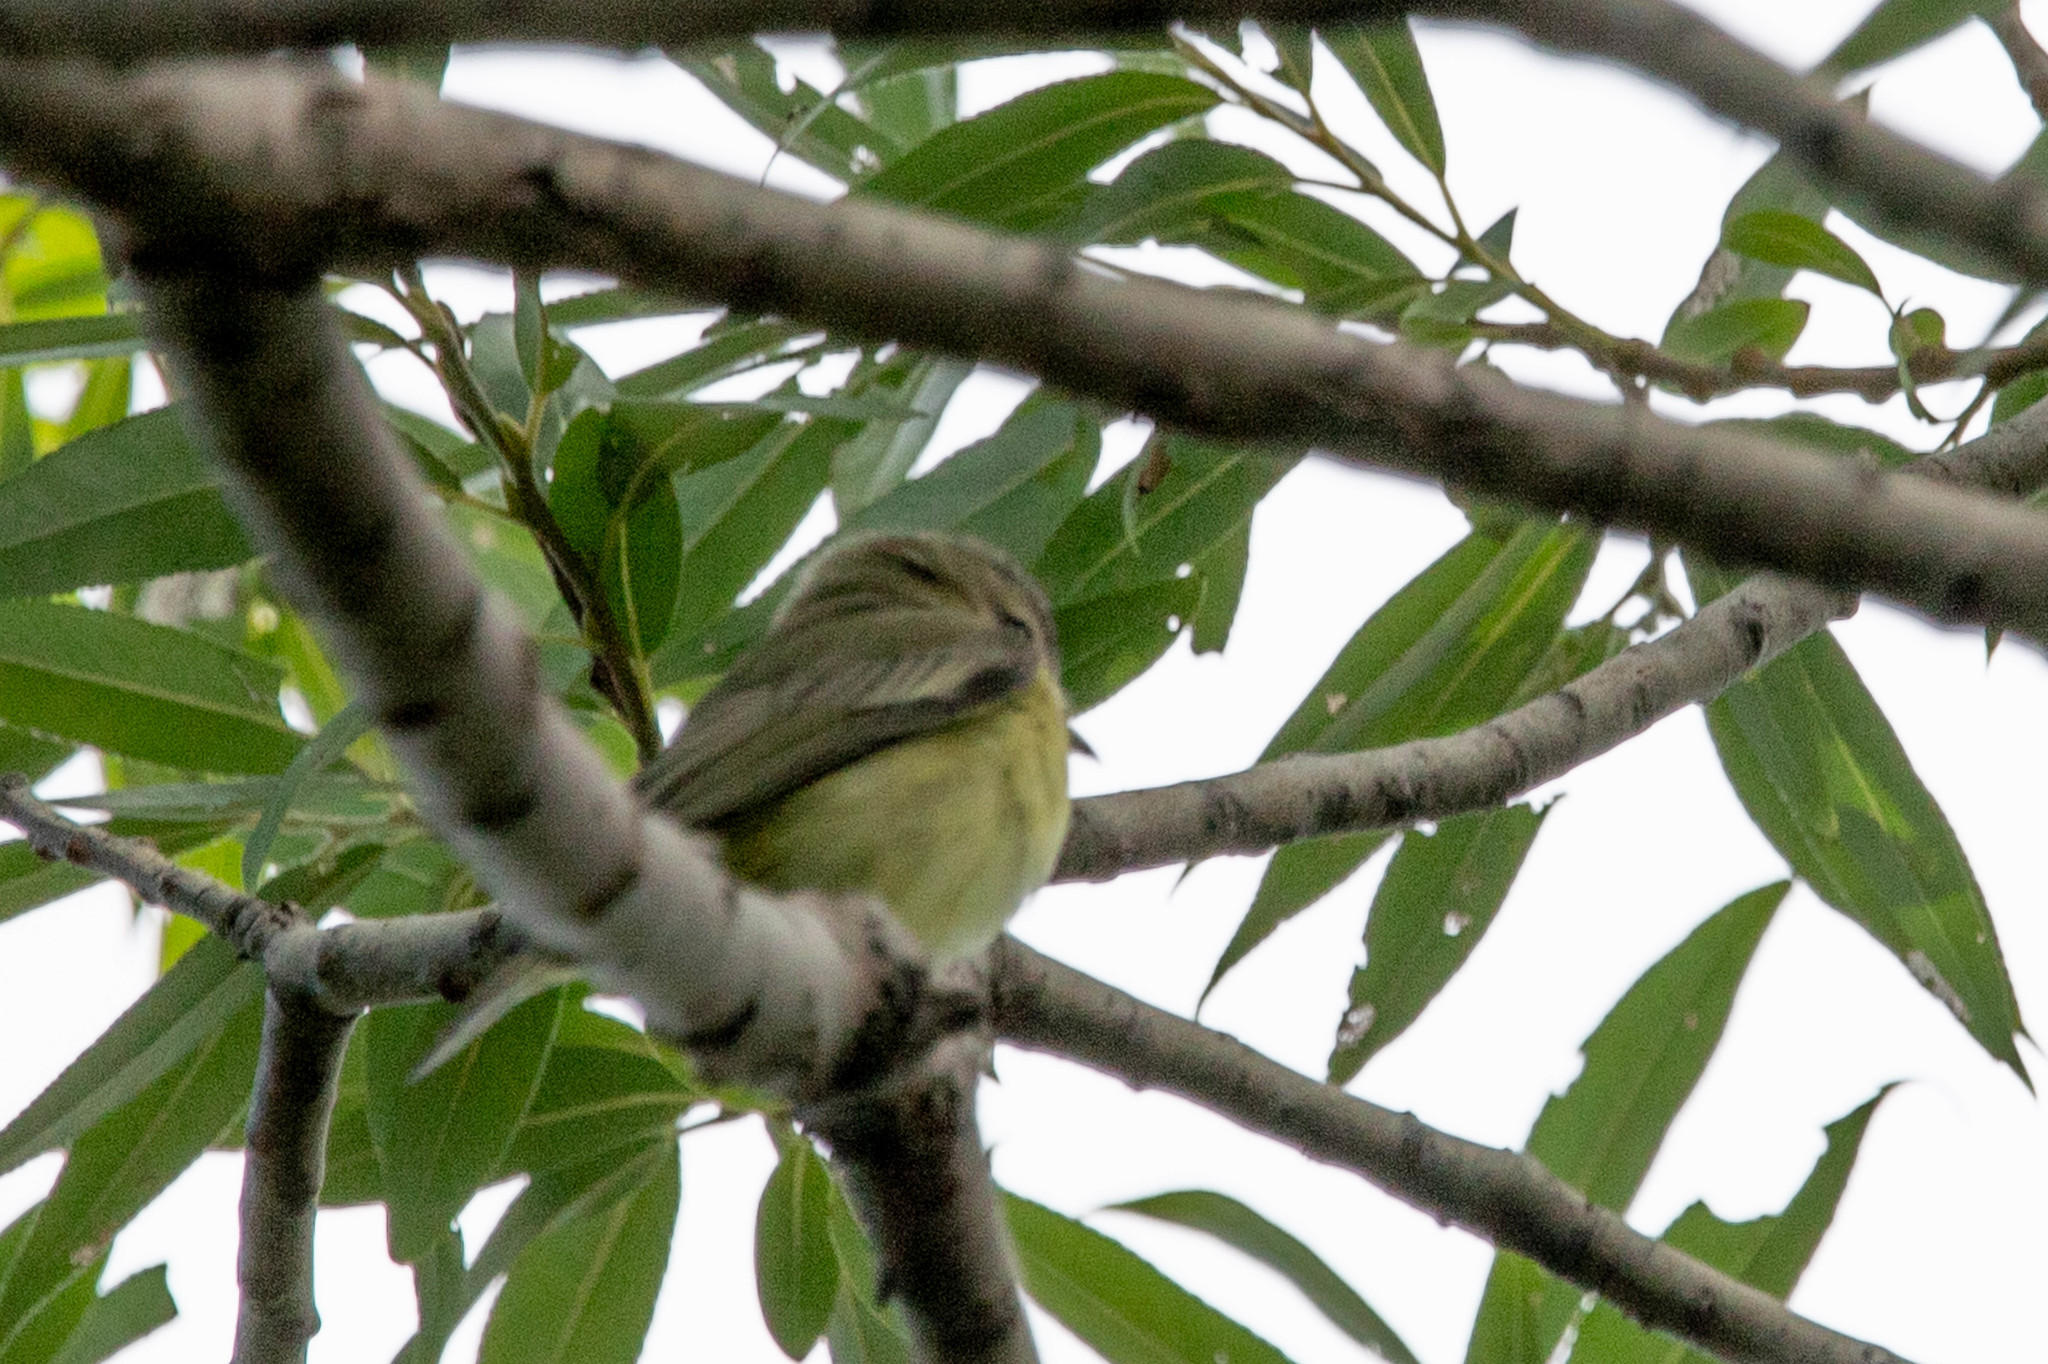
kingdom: Animalia
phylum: Chordata
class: Aves
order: Passeriformes
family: Vireonidae
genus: Vireo
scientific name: Vireo philadelphicus
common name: Philadelphia vireo
